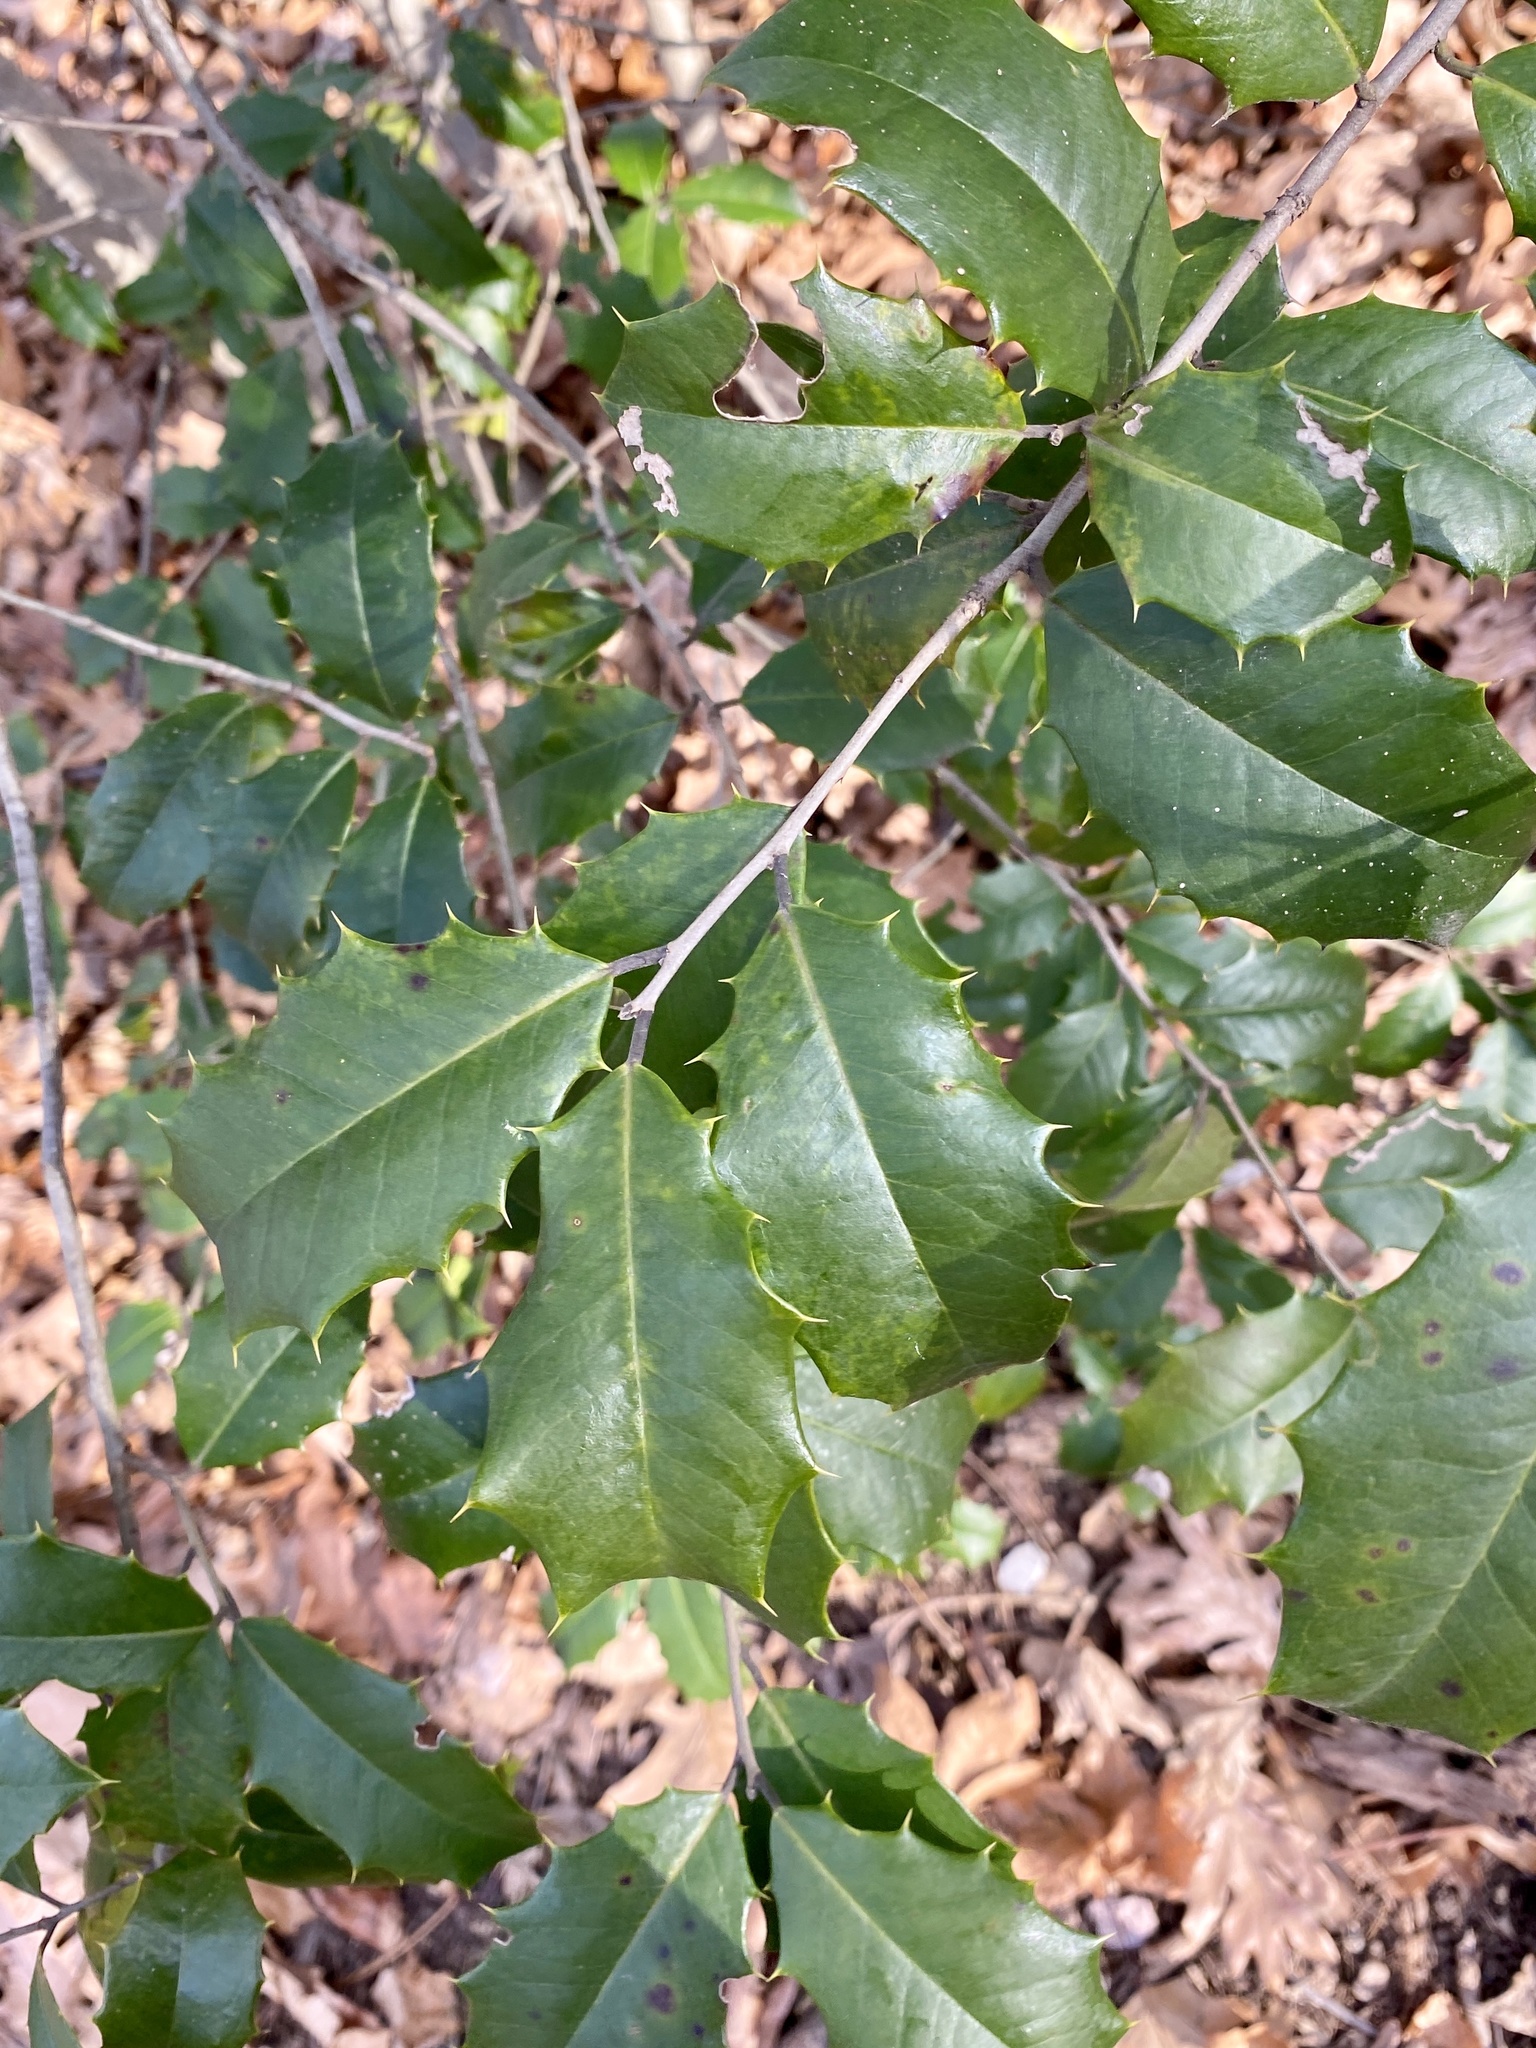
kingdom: Plantae
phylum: Tracheophyta
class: Magnoliopsida
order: Aquifoliales
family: Aquifoliaceae
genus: Ilex
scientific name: Ilex opaca
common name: American holly
